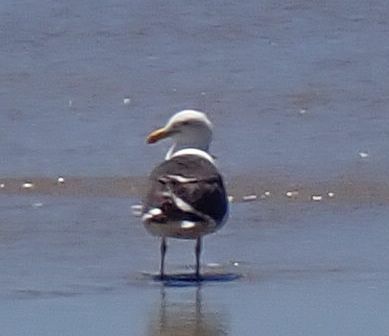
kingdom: Animalia
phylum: Chordata
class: Aves
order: Charadriiformes
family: Laridae
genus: Larus
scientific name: Larus dominicanus
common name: Kelp gull
